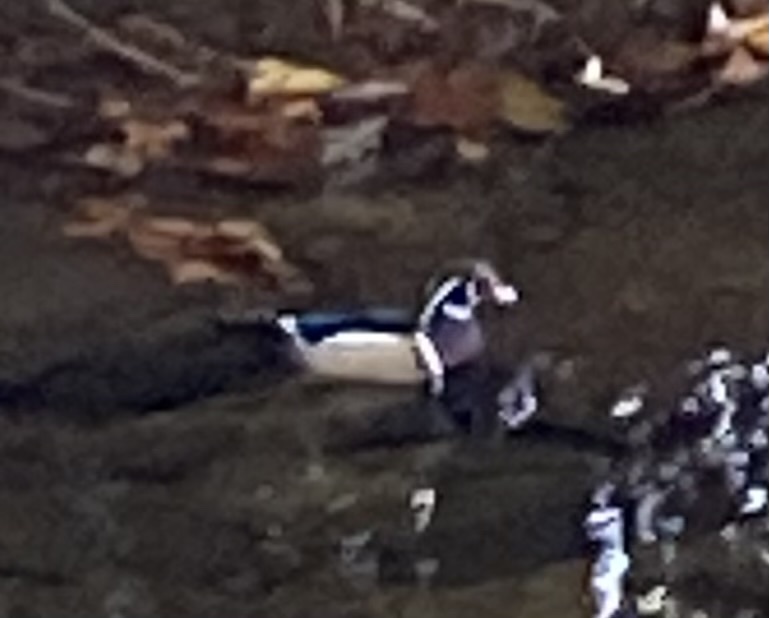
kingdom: Animalia
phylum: Chordata
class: Aves
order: Anseriformes
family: Anatidae
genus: Aix
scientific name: Aix sponsa
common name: Wood duck
